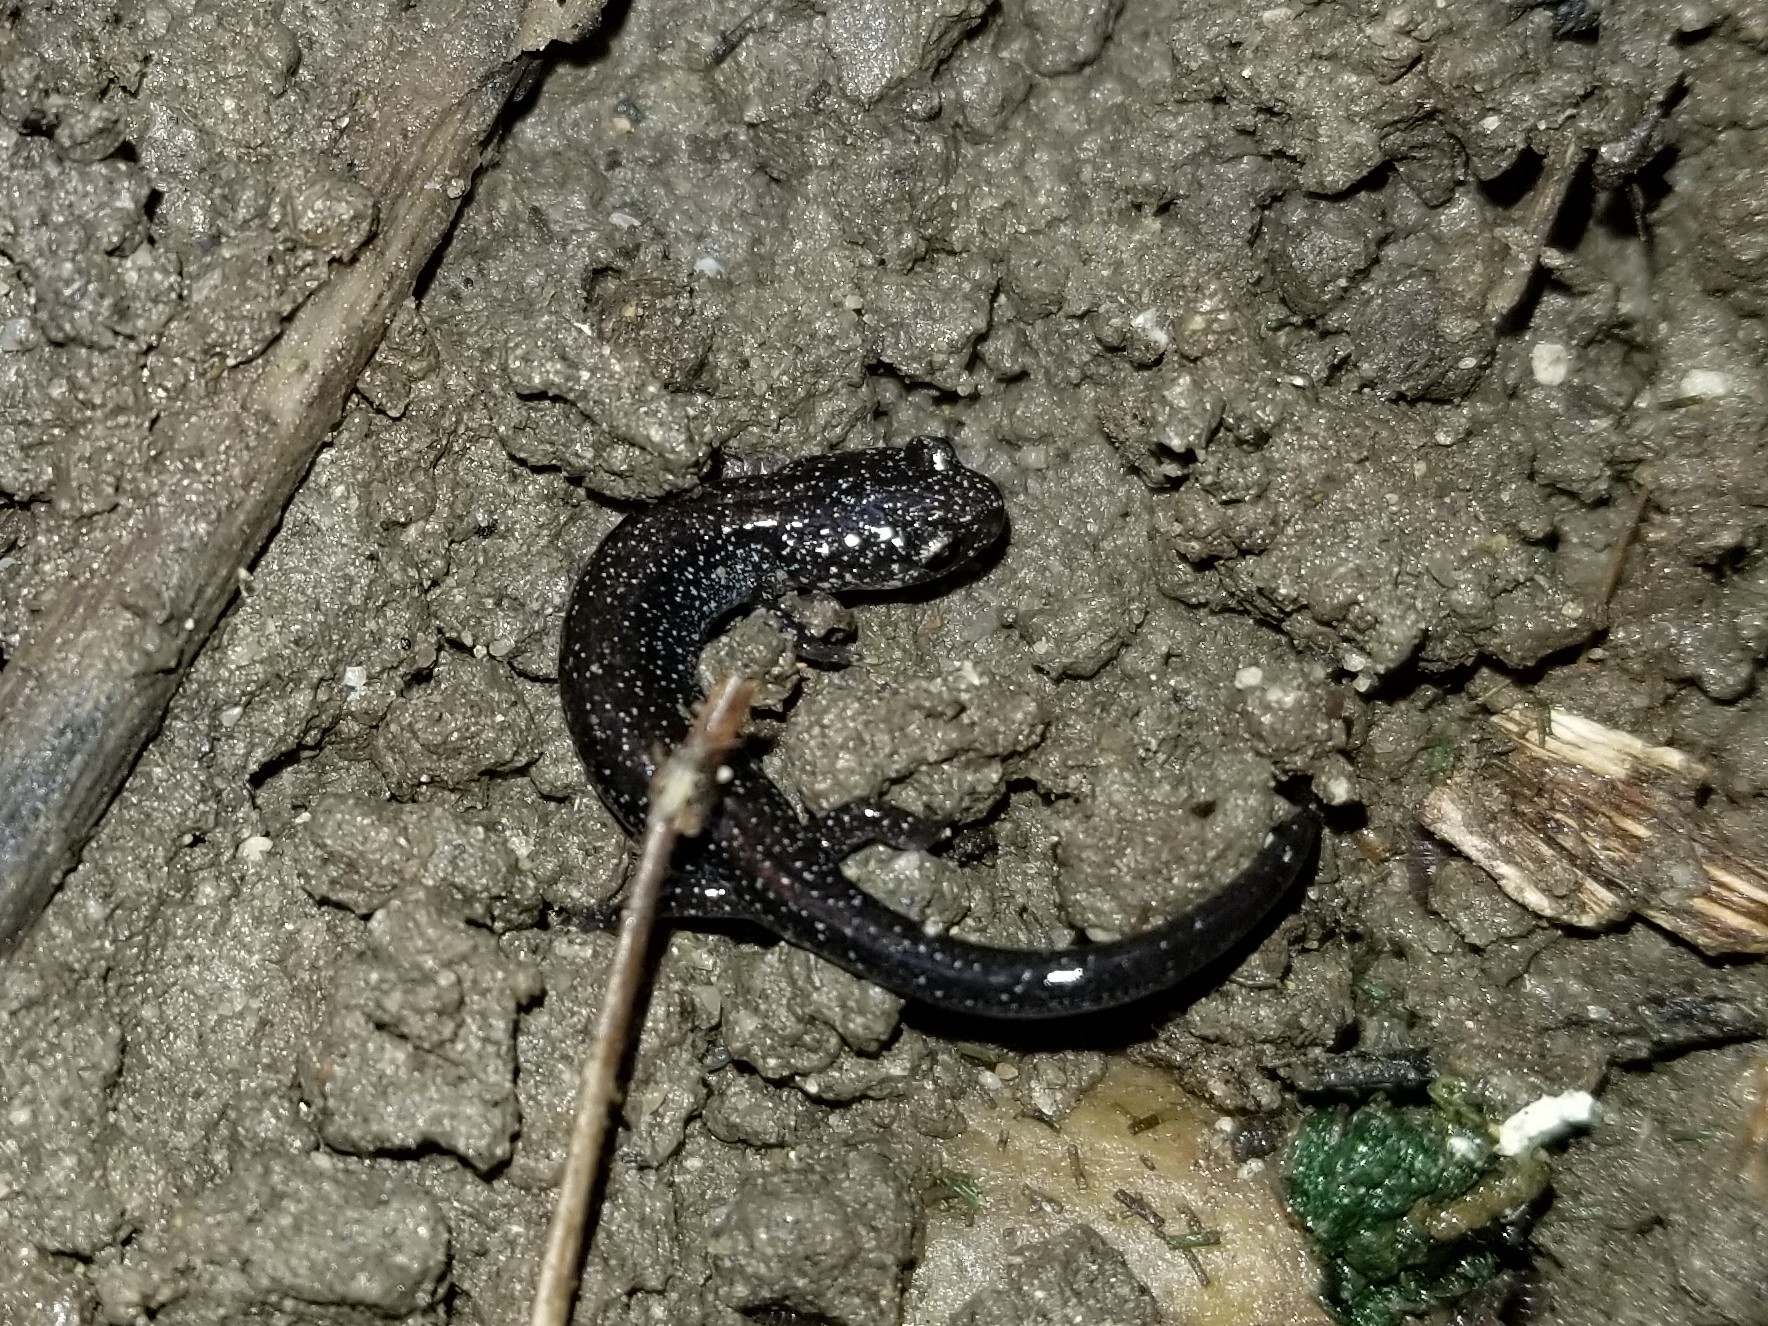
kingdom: Animalia
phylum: Chordata
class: Amphibia
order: Caudata
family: Plethodontidae
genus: Plethodon
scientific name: Plethodon cinereus
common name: Redback salamander
